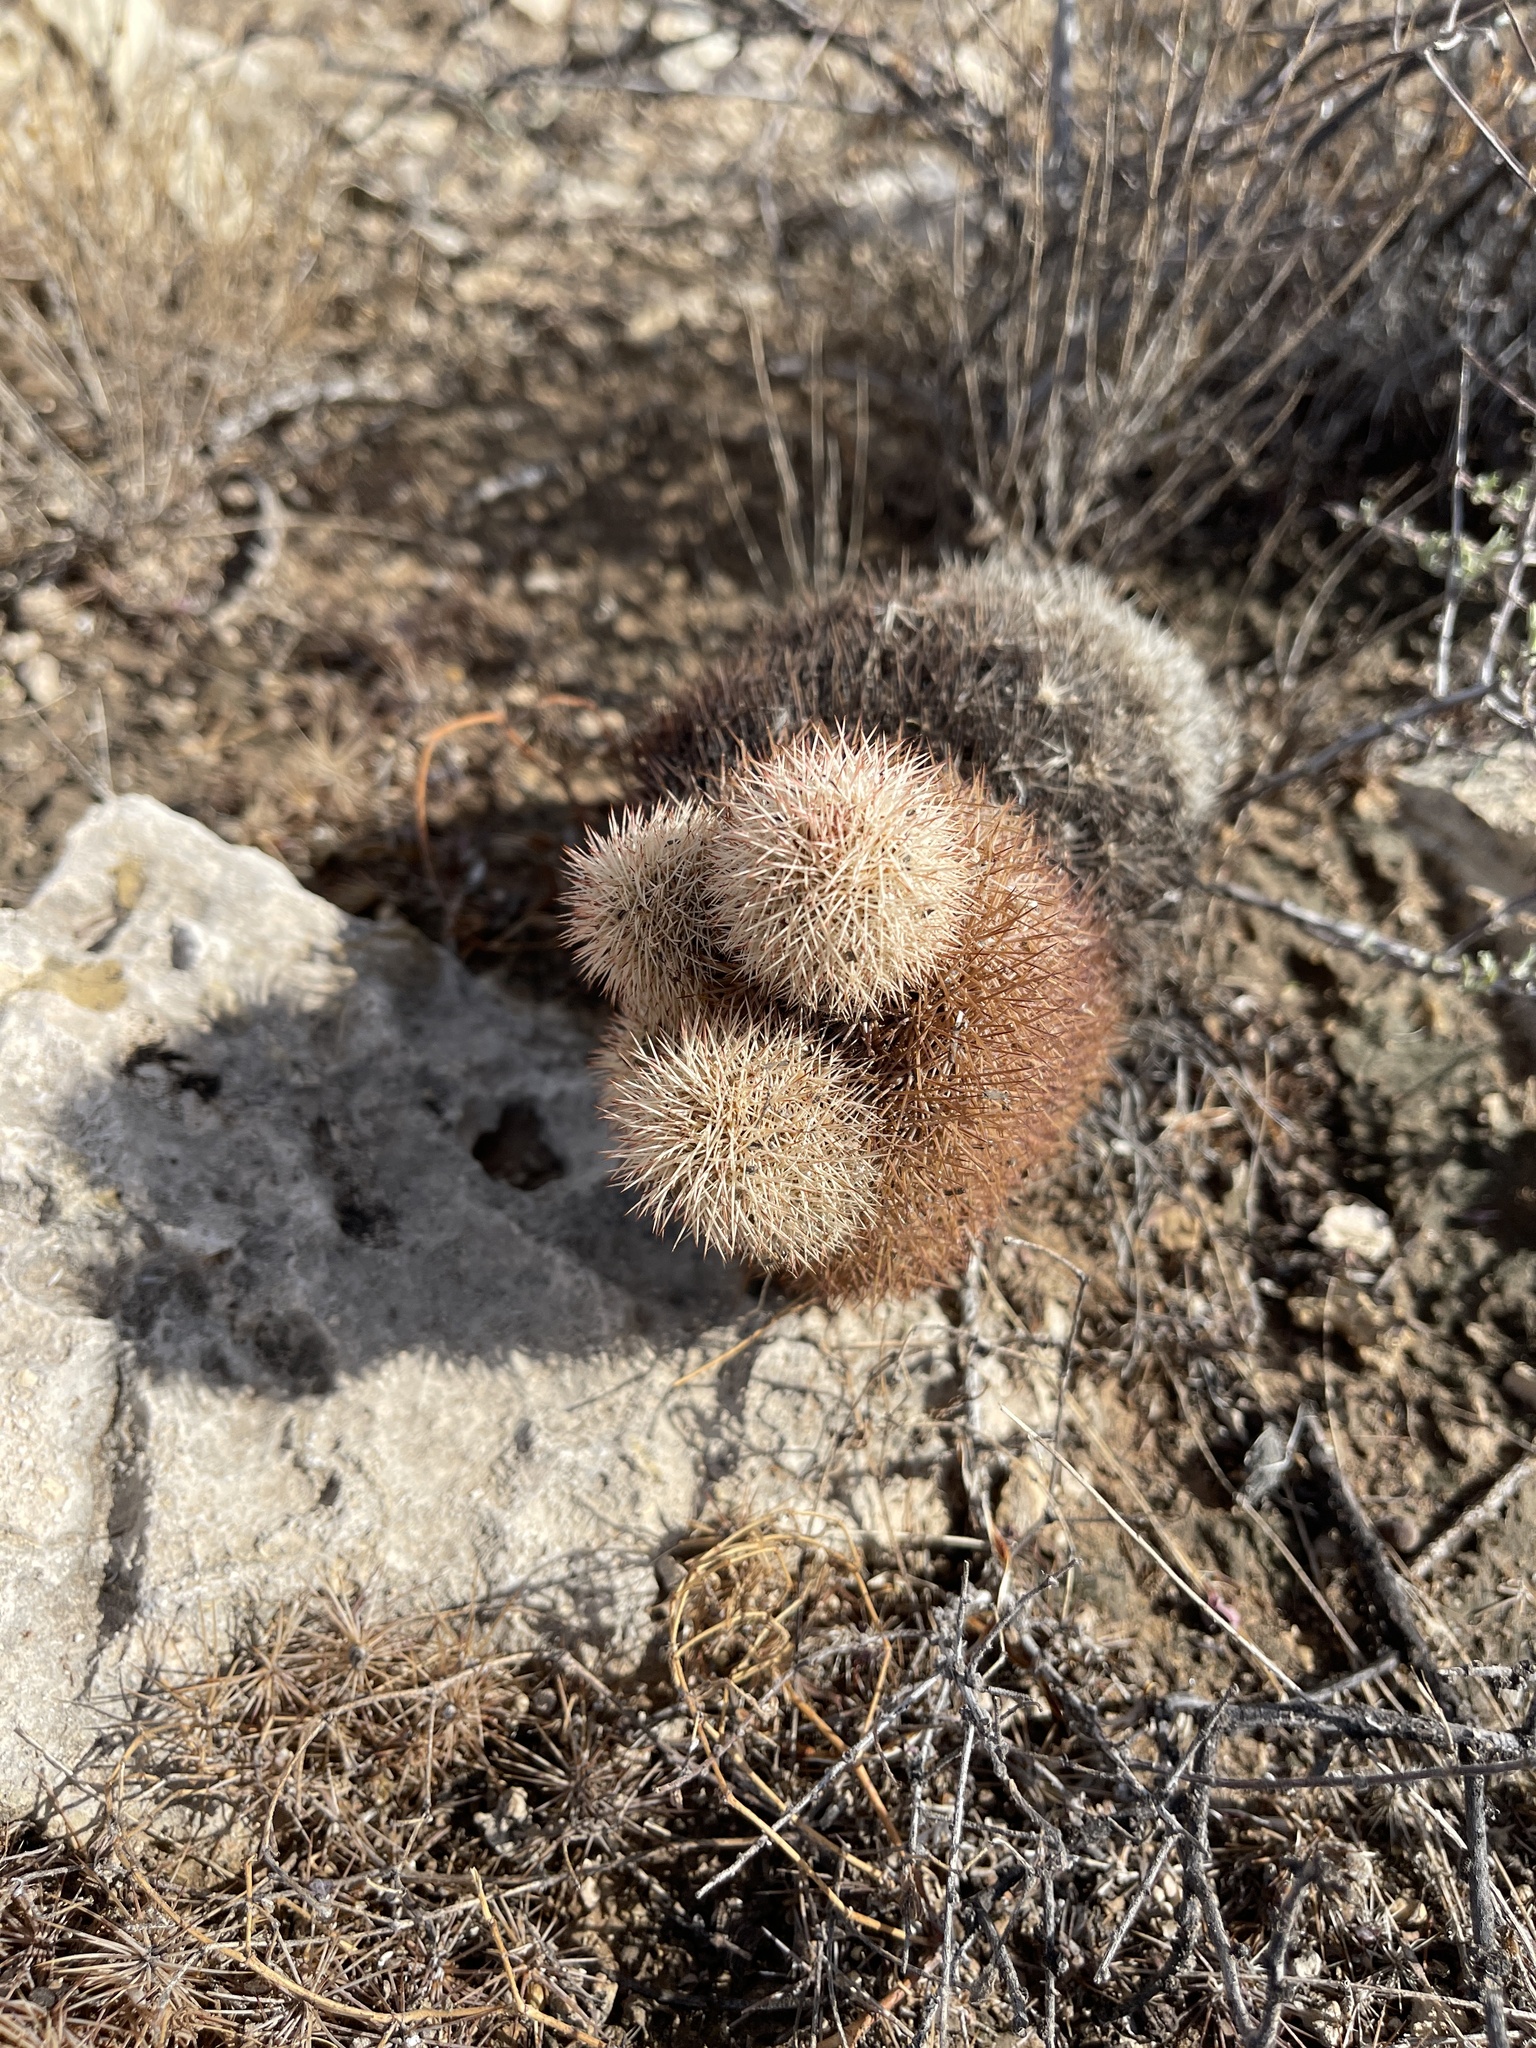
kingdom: Plantae
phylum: Tracheophyta
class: Magnoliopsida
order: Caryophyllales
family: Cactaceae
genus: Echinocereus
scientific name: Echinocereus dasyacanthus
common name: Spiny hedgehog cactus
